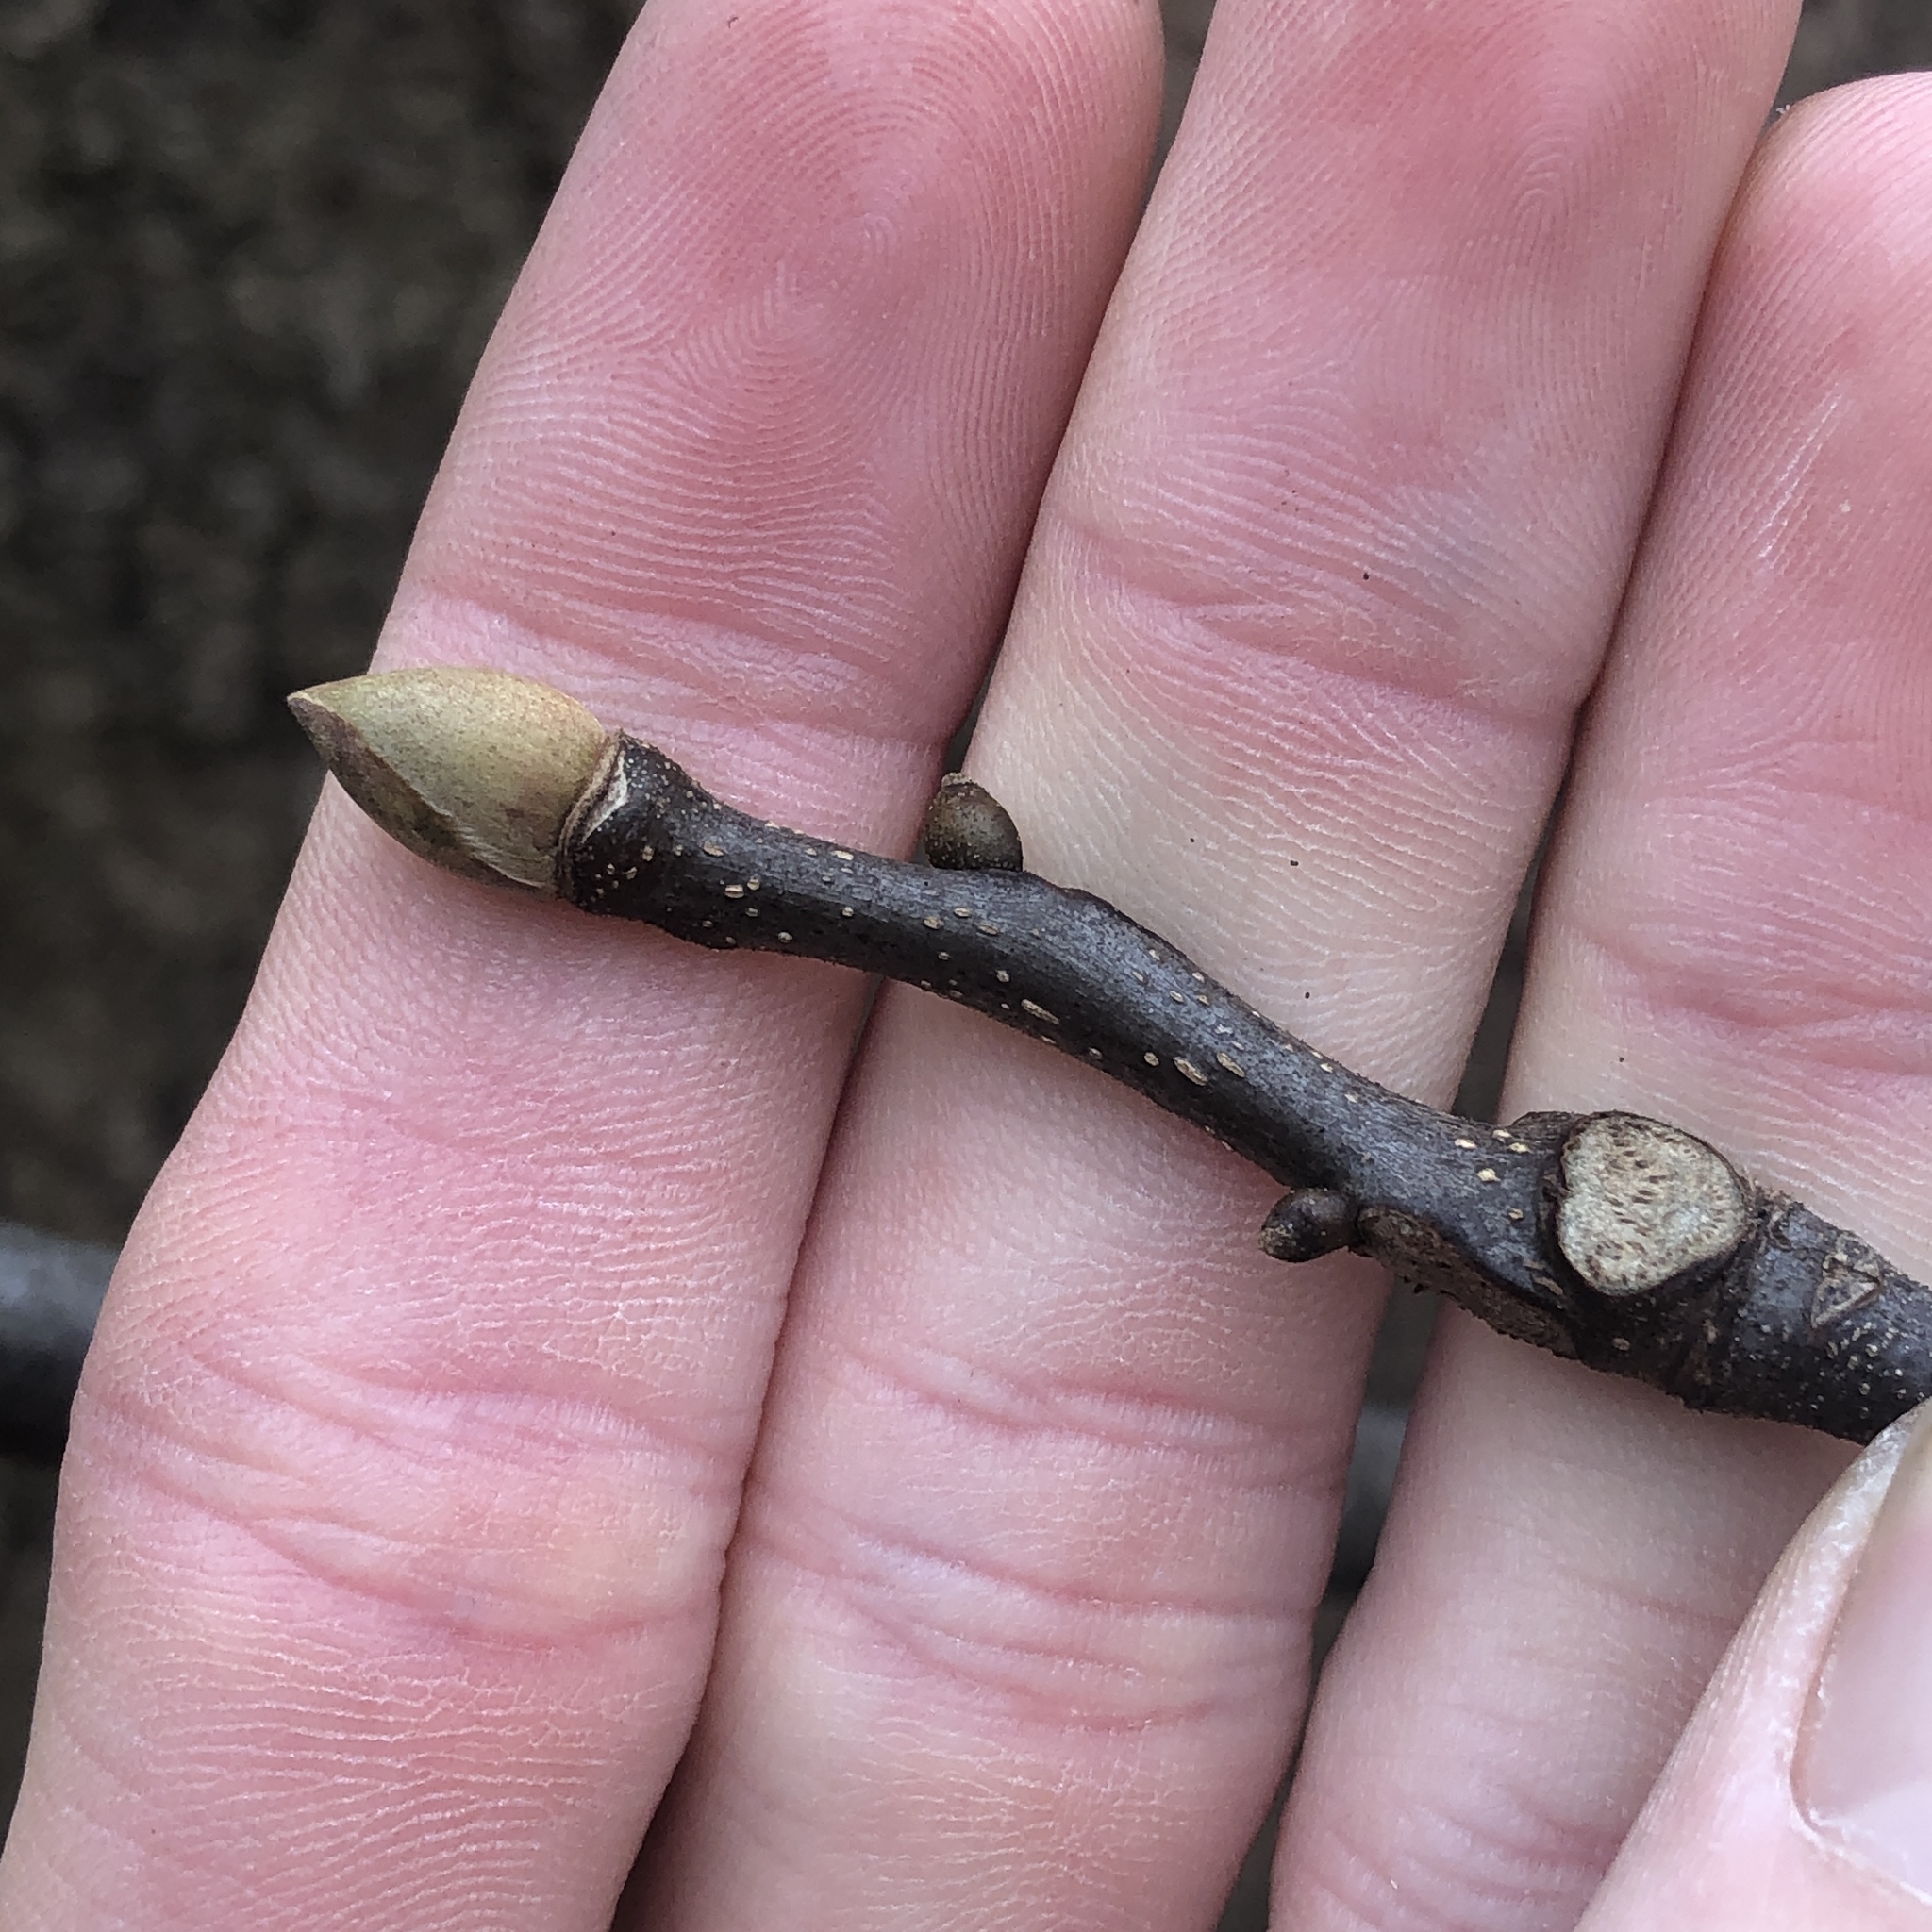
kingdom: Plantae
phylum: Tracheophyta
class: Magnoliopsida
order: Fagales
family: Juglandaceae
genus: Carya
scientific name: Carya glabra
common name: Pignut hickory
